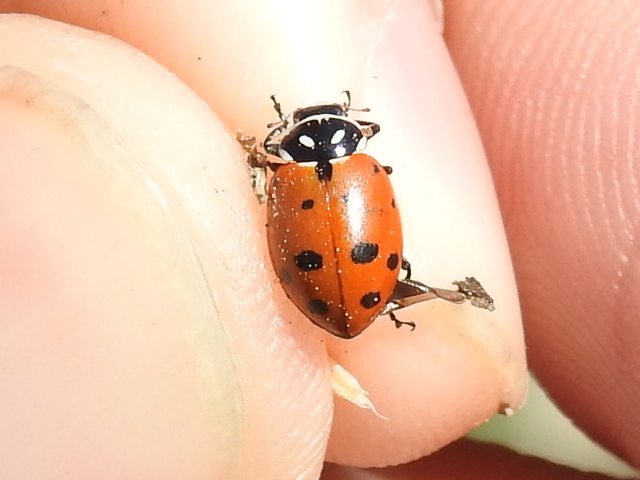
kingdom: Animalia
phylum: Arthropoda
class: Insecta
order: Coleoptera
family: Coccinellidae
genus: Hippodamia
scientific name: Hippodamia convergens
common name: Convergent lady beetle
